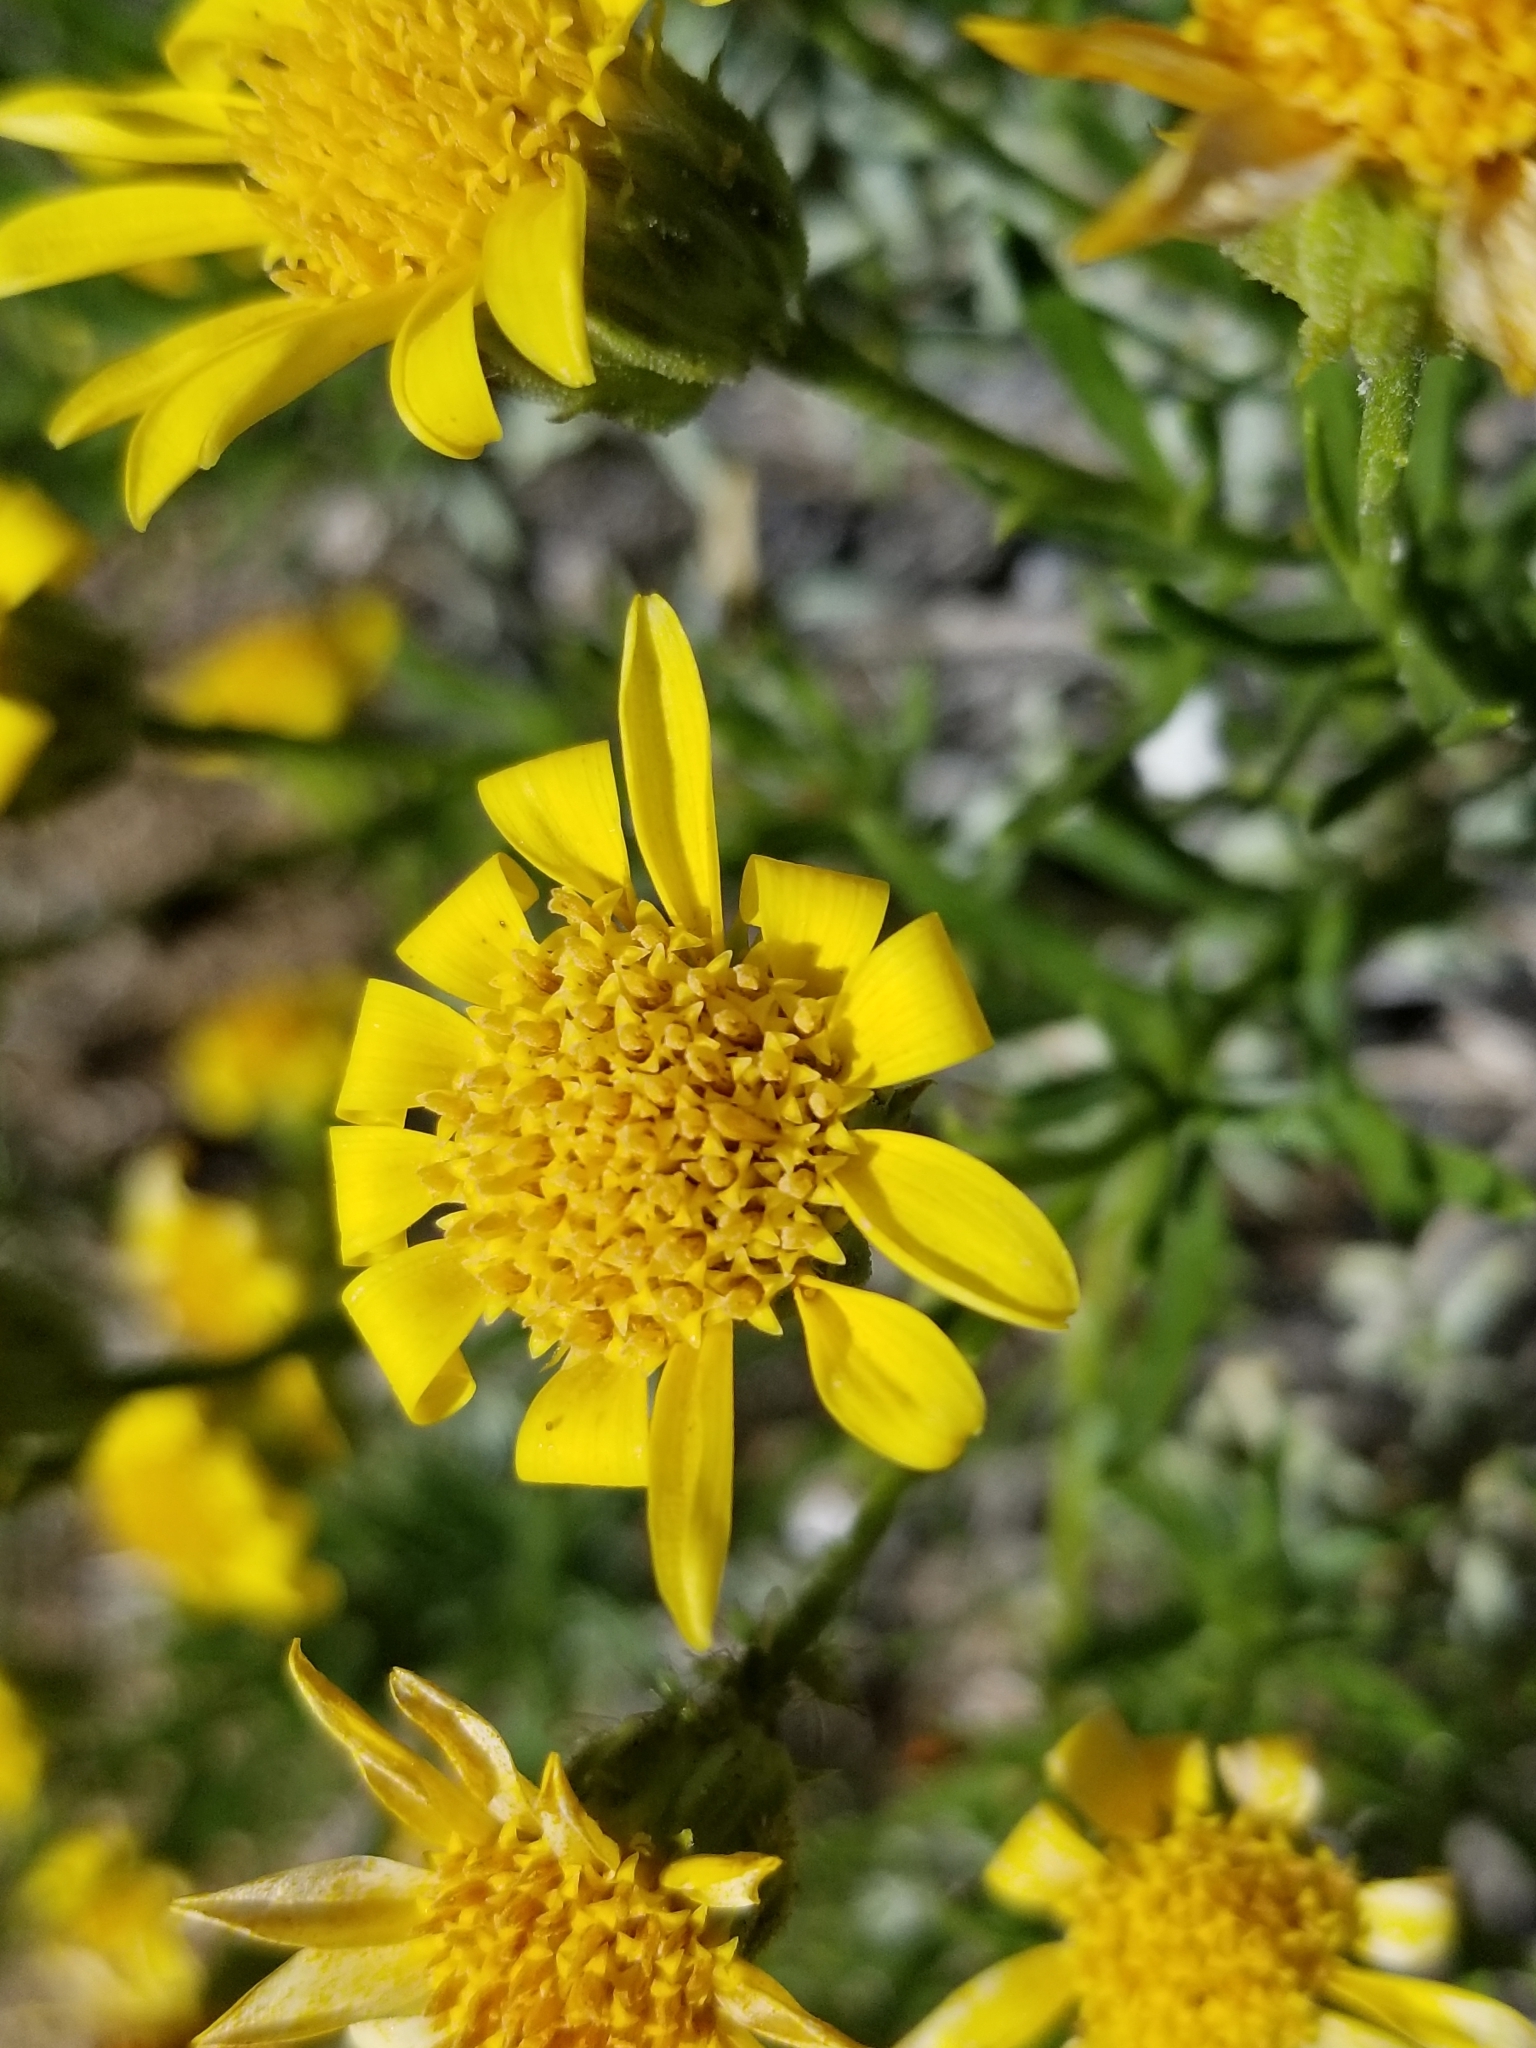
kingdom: Plantae
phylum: Tracheophyta
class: Magnoliopsida
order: Asterales
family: Asteraceae
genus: Ericameria
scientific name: Ericameria linearifolia
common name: Interior goldenbush
